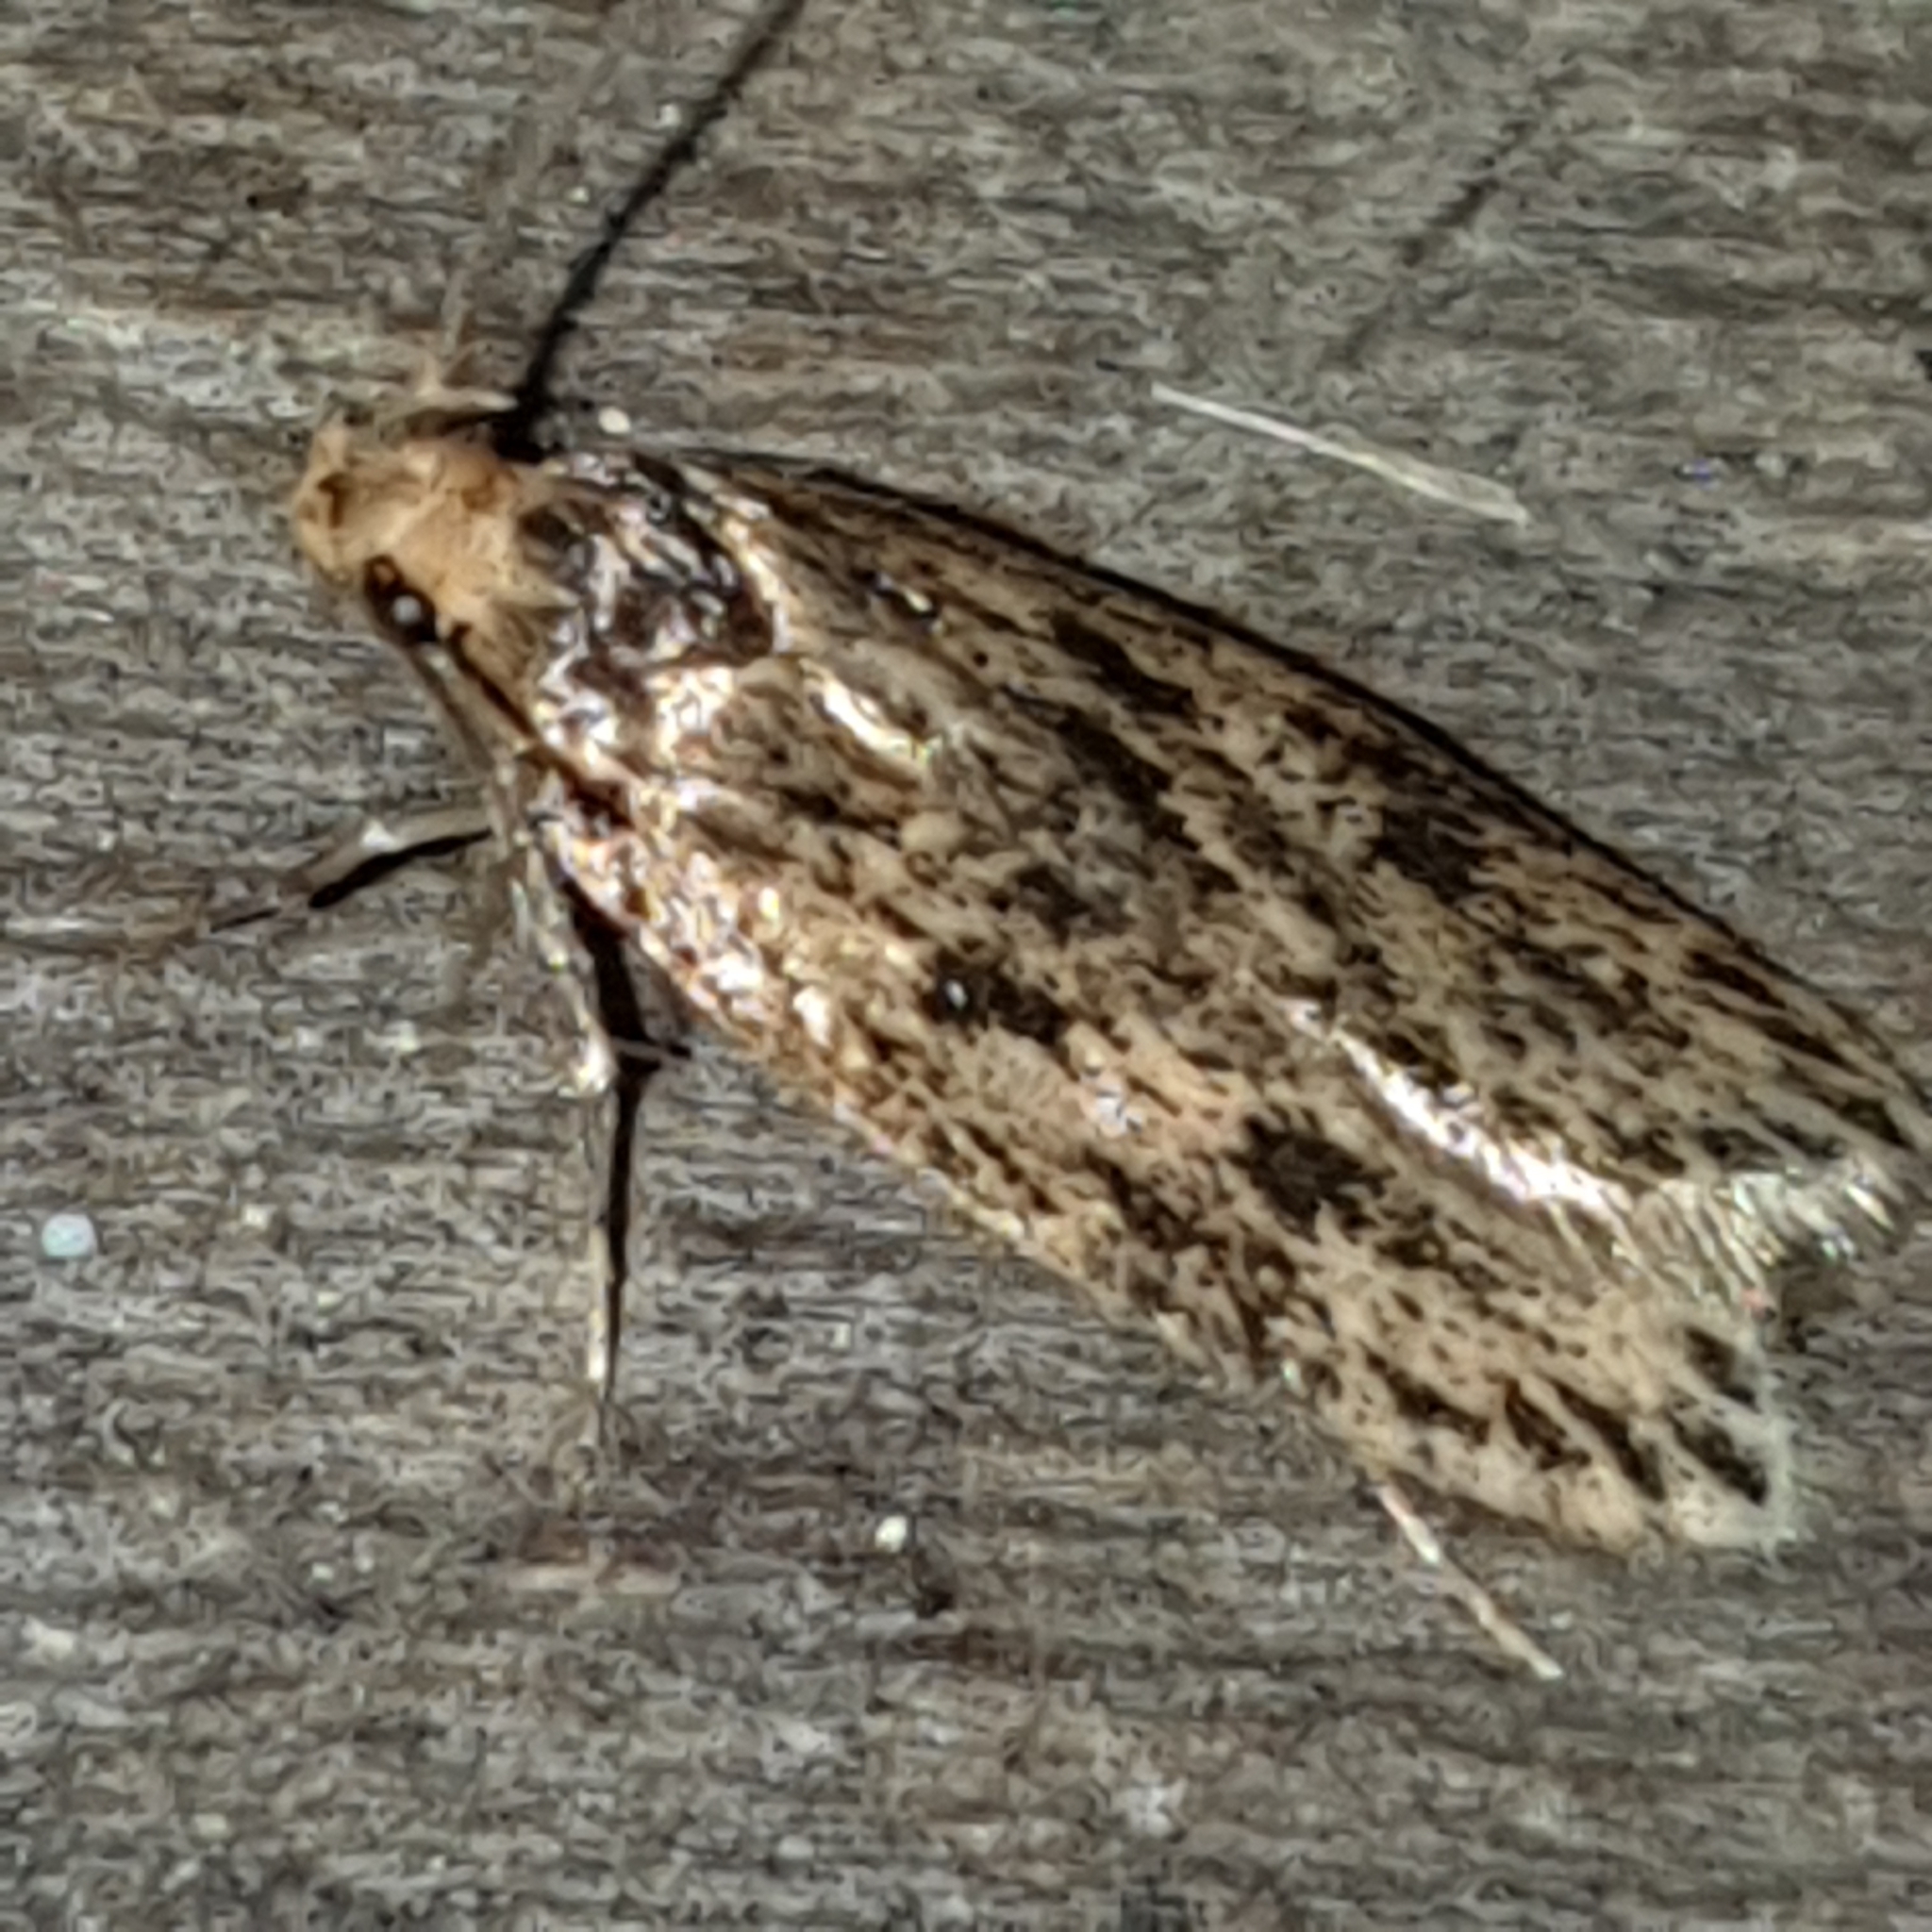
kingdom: Animalia
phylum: Arthropoda
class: Insecta
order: Lepidoptera
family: Oecophoridae
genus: Hofmannophila
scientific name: Hofmannophila pseudospretella
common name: Brown house moth
